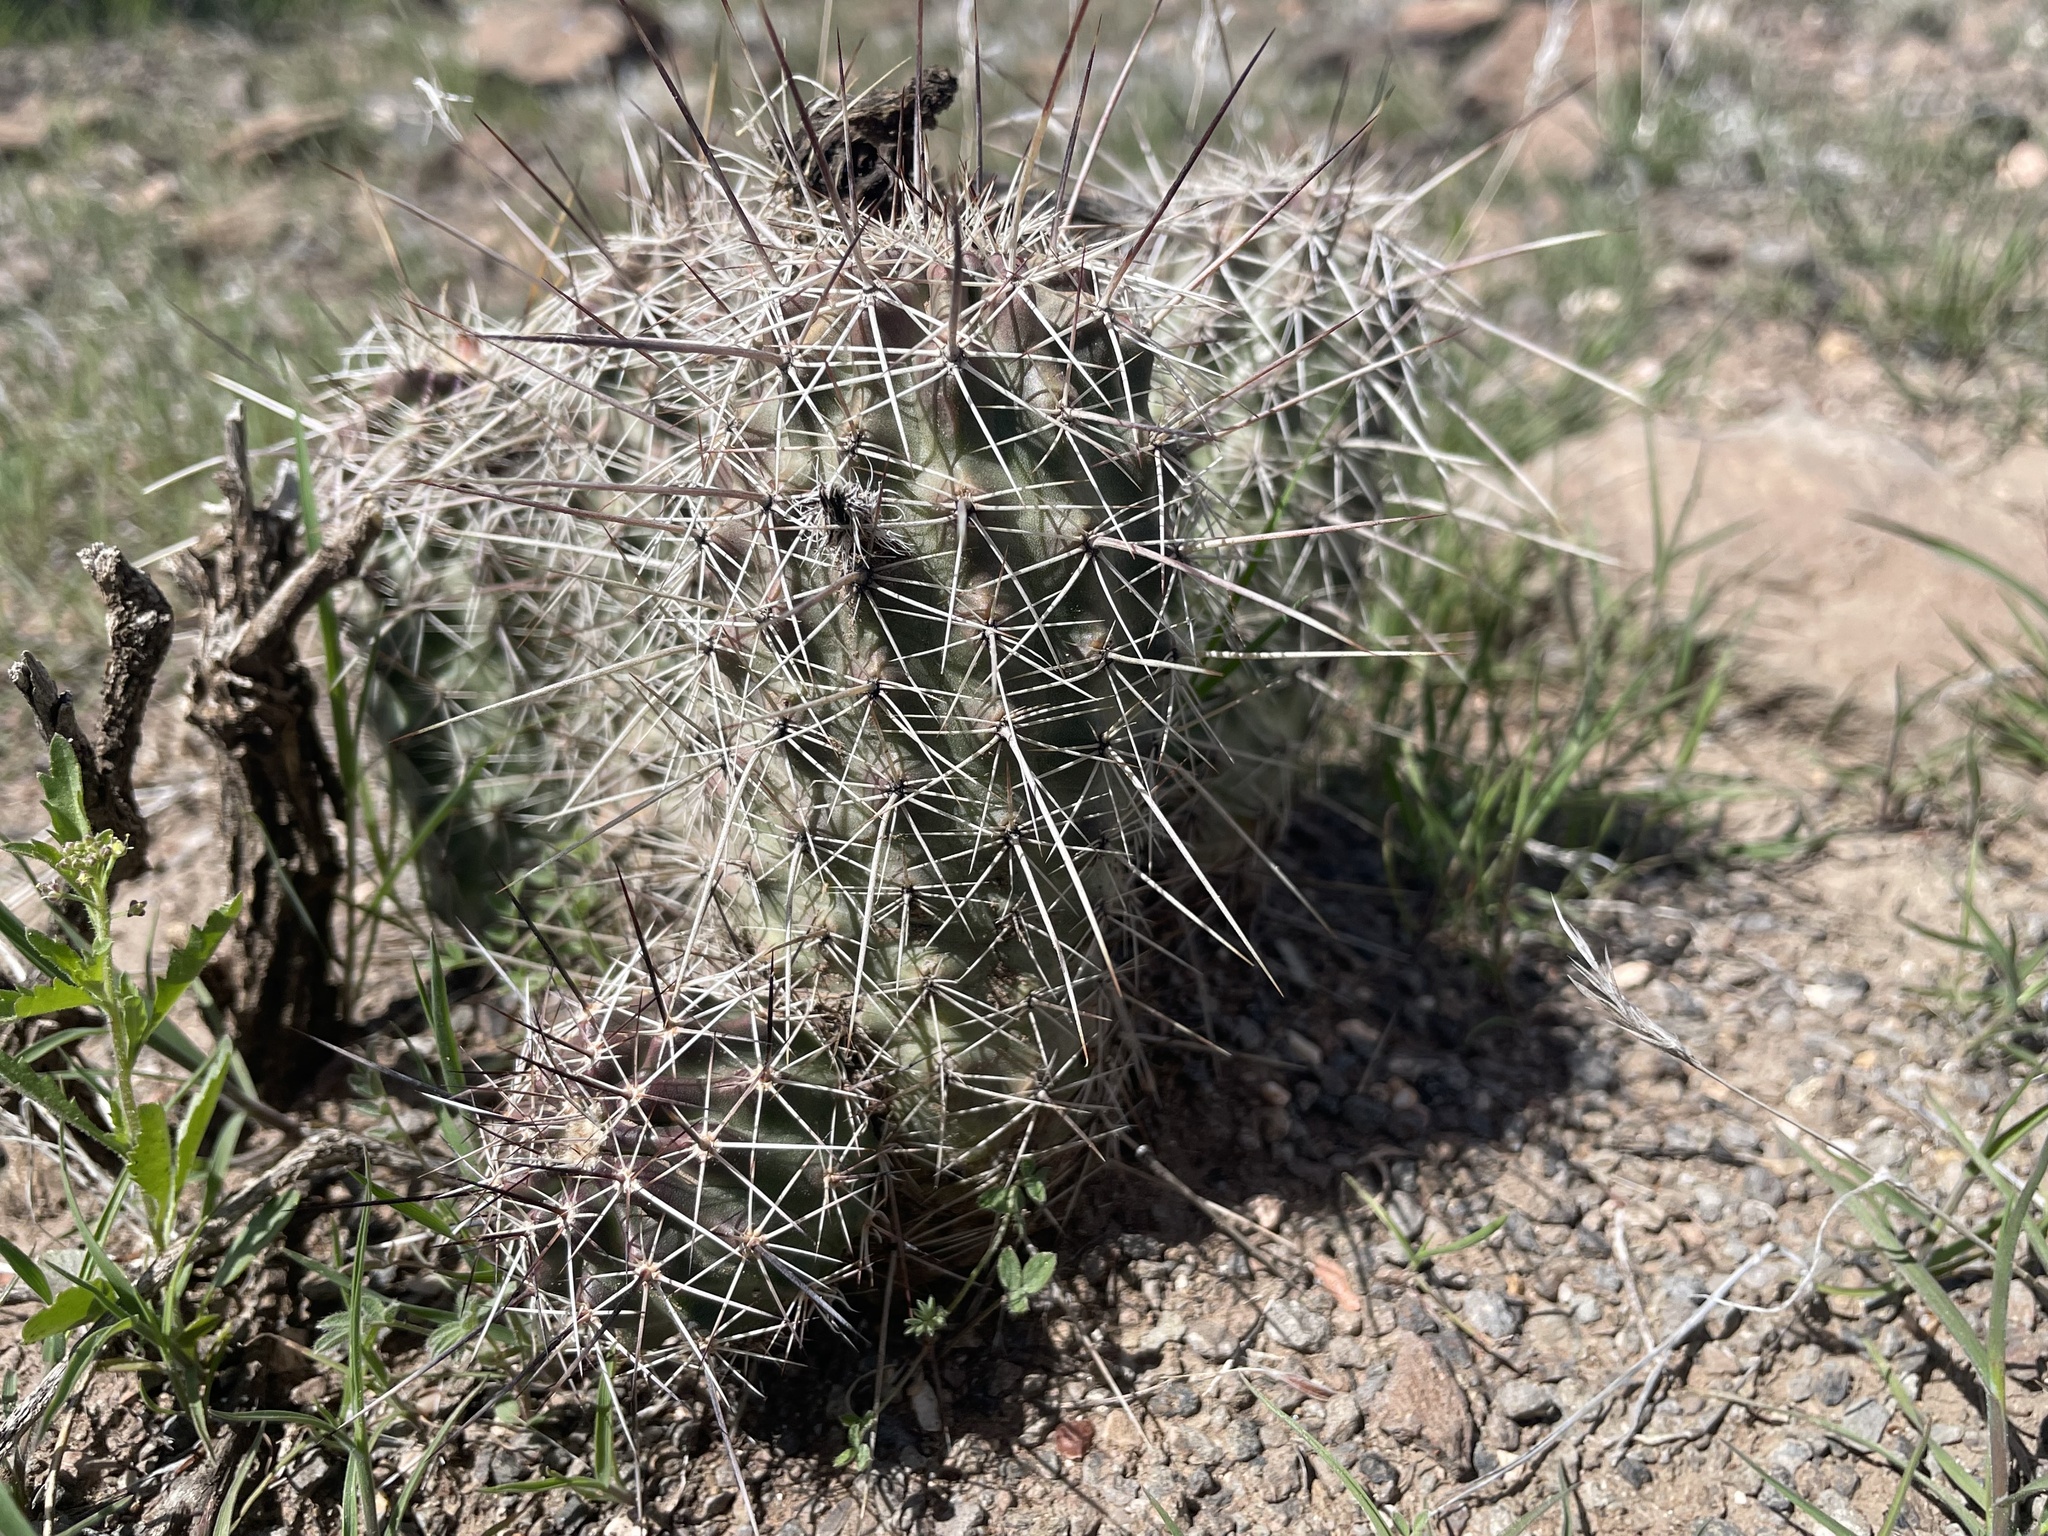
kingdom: Plantae
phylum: Tracheophyta
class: Magnoliopsida
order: Caryophyllales
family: Cactaceae
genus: Echinocereus
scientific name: Echinocereus fasciculatus
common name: Bundle hedgehog
